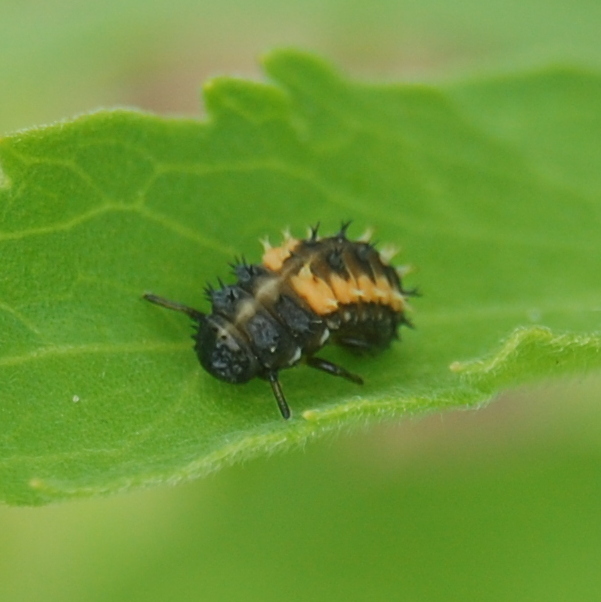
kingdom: Animalia
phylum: Arthropoda
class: Insecta
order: Coleoptera
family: Coccinellidae
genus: Harmonia
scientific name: Harmonia axyridis
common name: Harlequin ladybird
